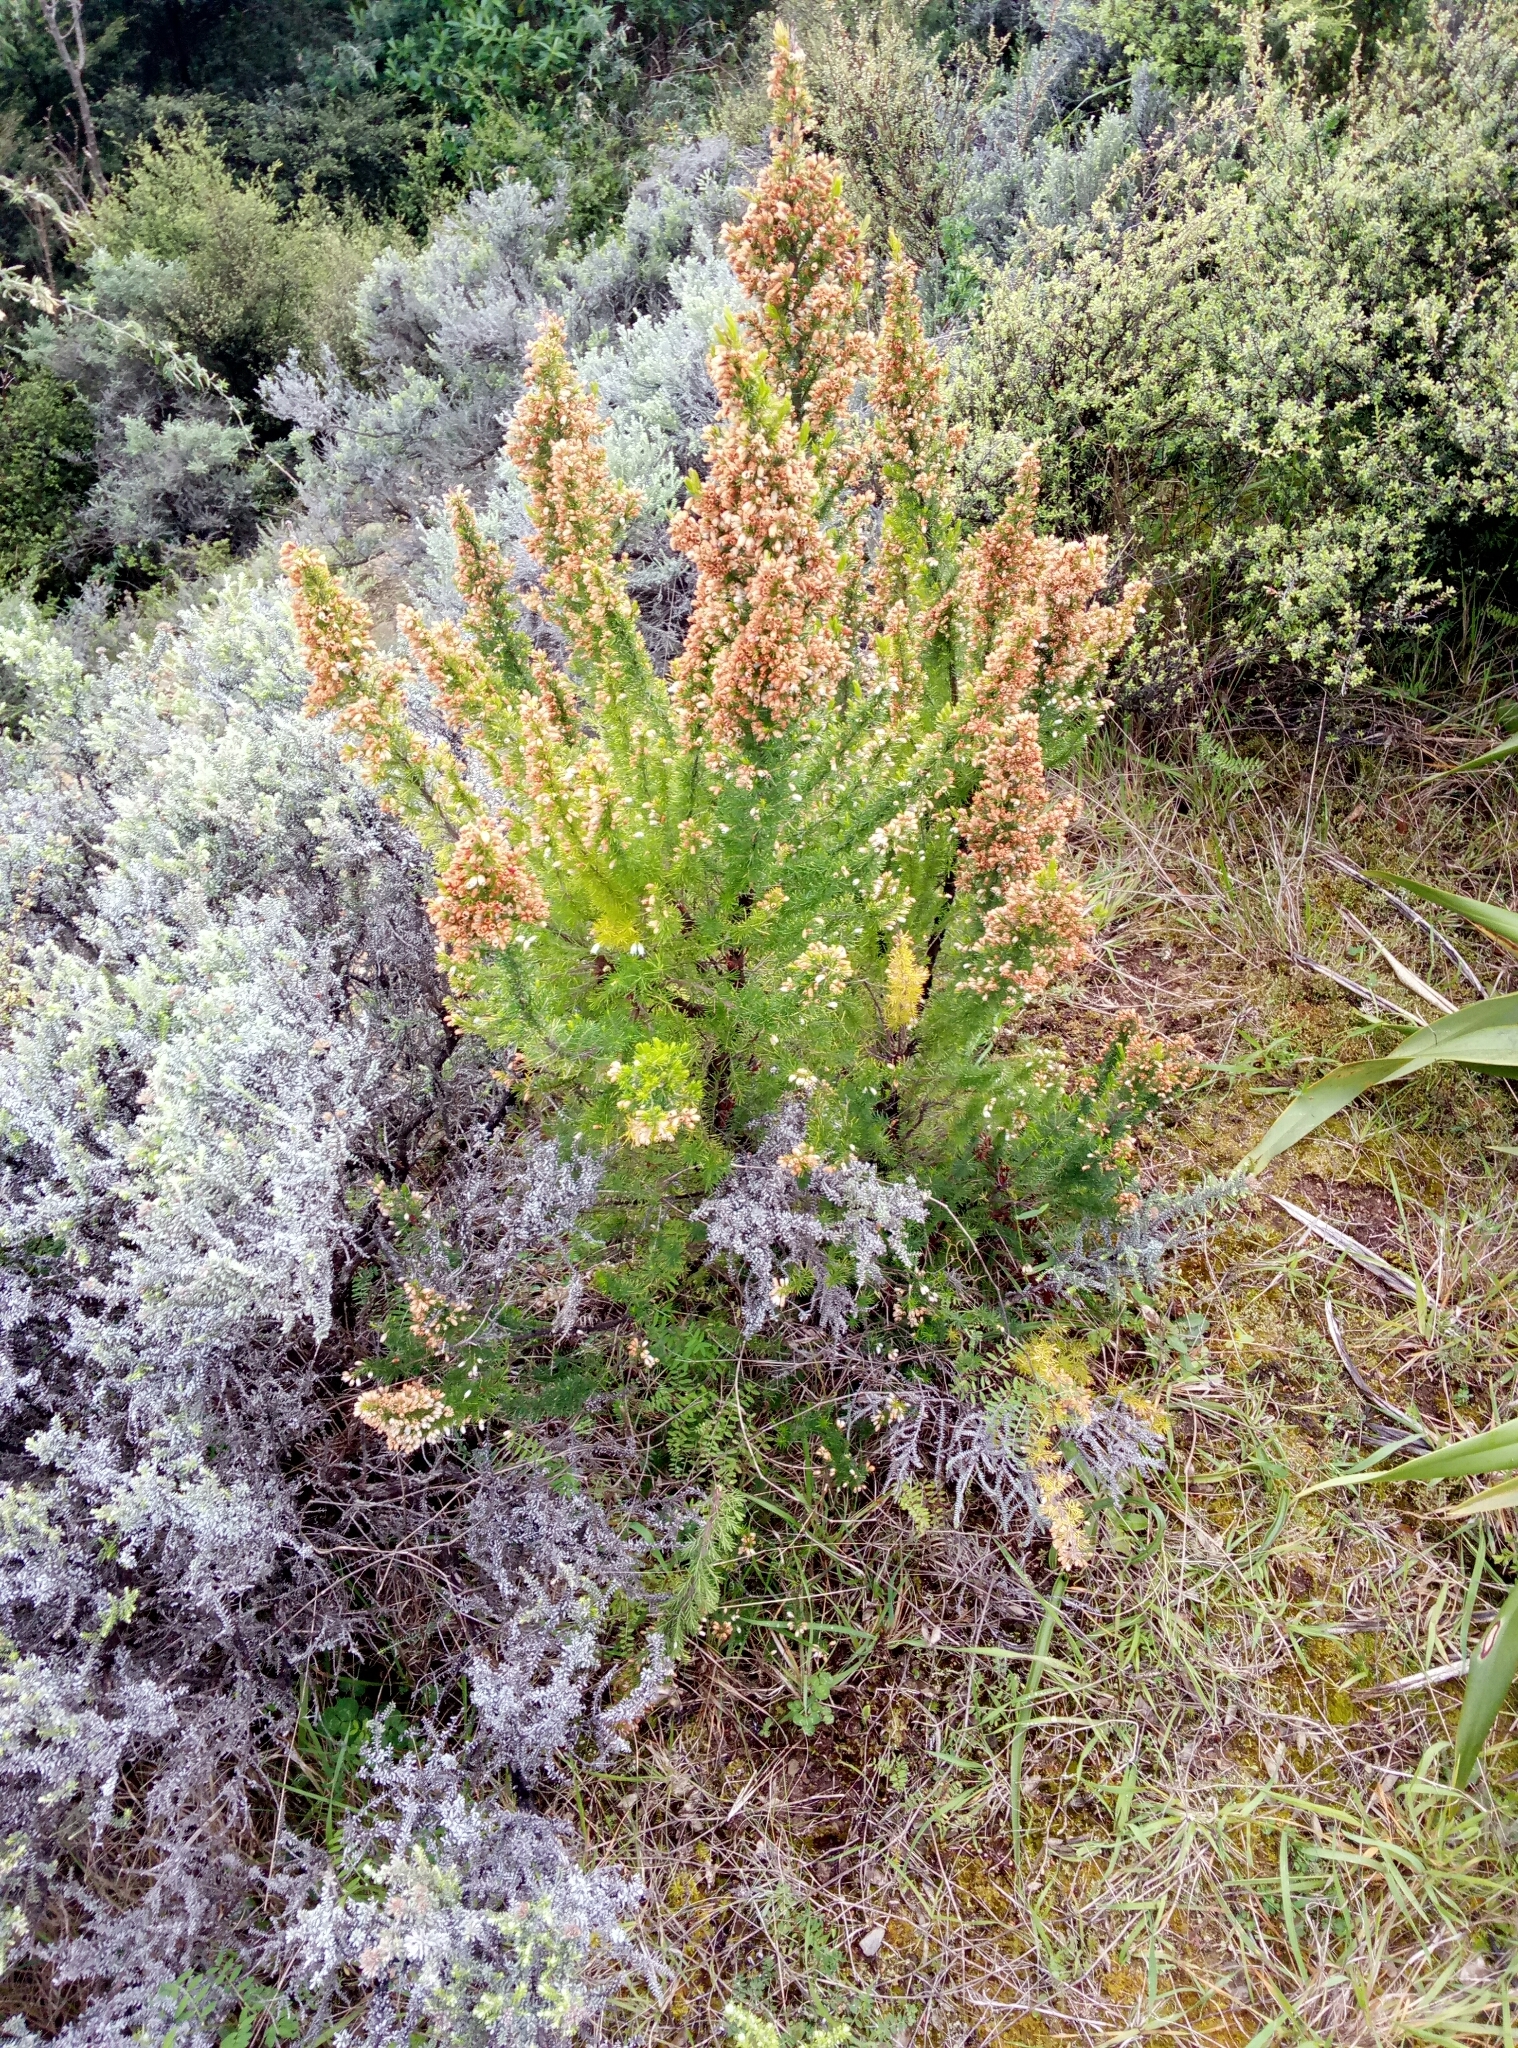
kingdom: Plantae
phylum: Tracheophyta
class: Magnoliopsida
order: Ericales
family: Ericaceae
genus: Erica
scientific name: Erica lusitanica
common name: Spanish heath
